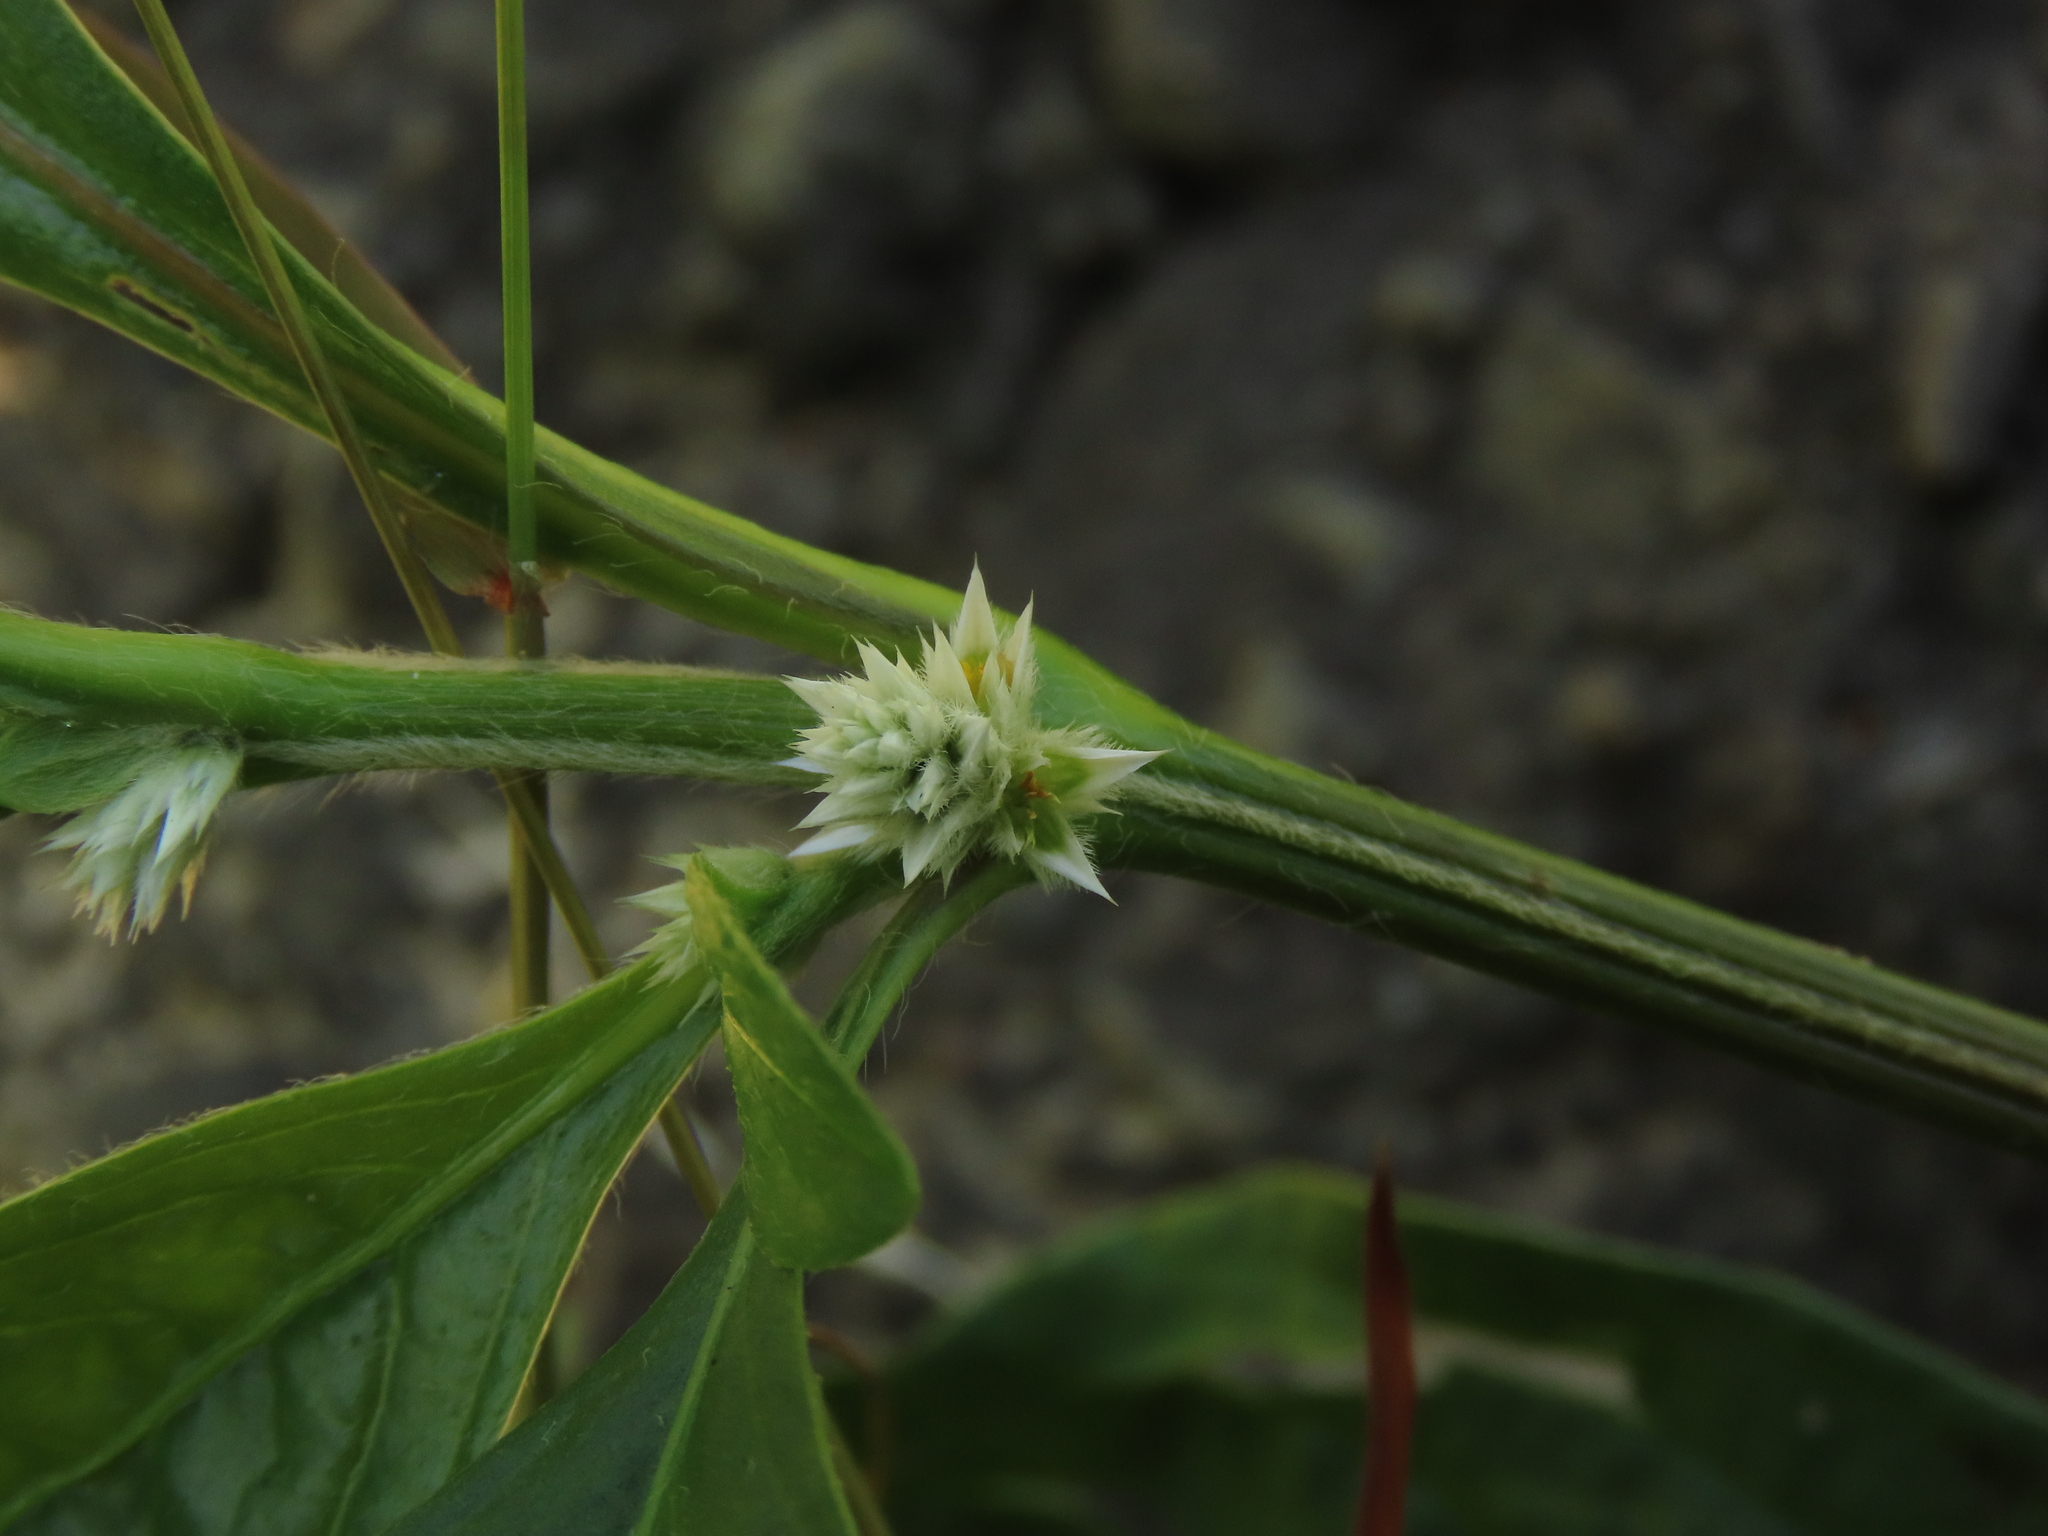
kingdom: Plantae
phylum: Tracheophyta
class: Magnoliopsida
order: Caryophyllales
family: Amaranthaceae
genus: Alternanthera
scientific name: Alternanthera ficoidea
